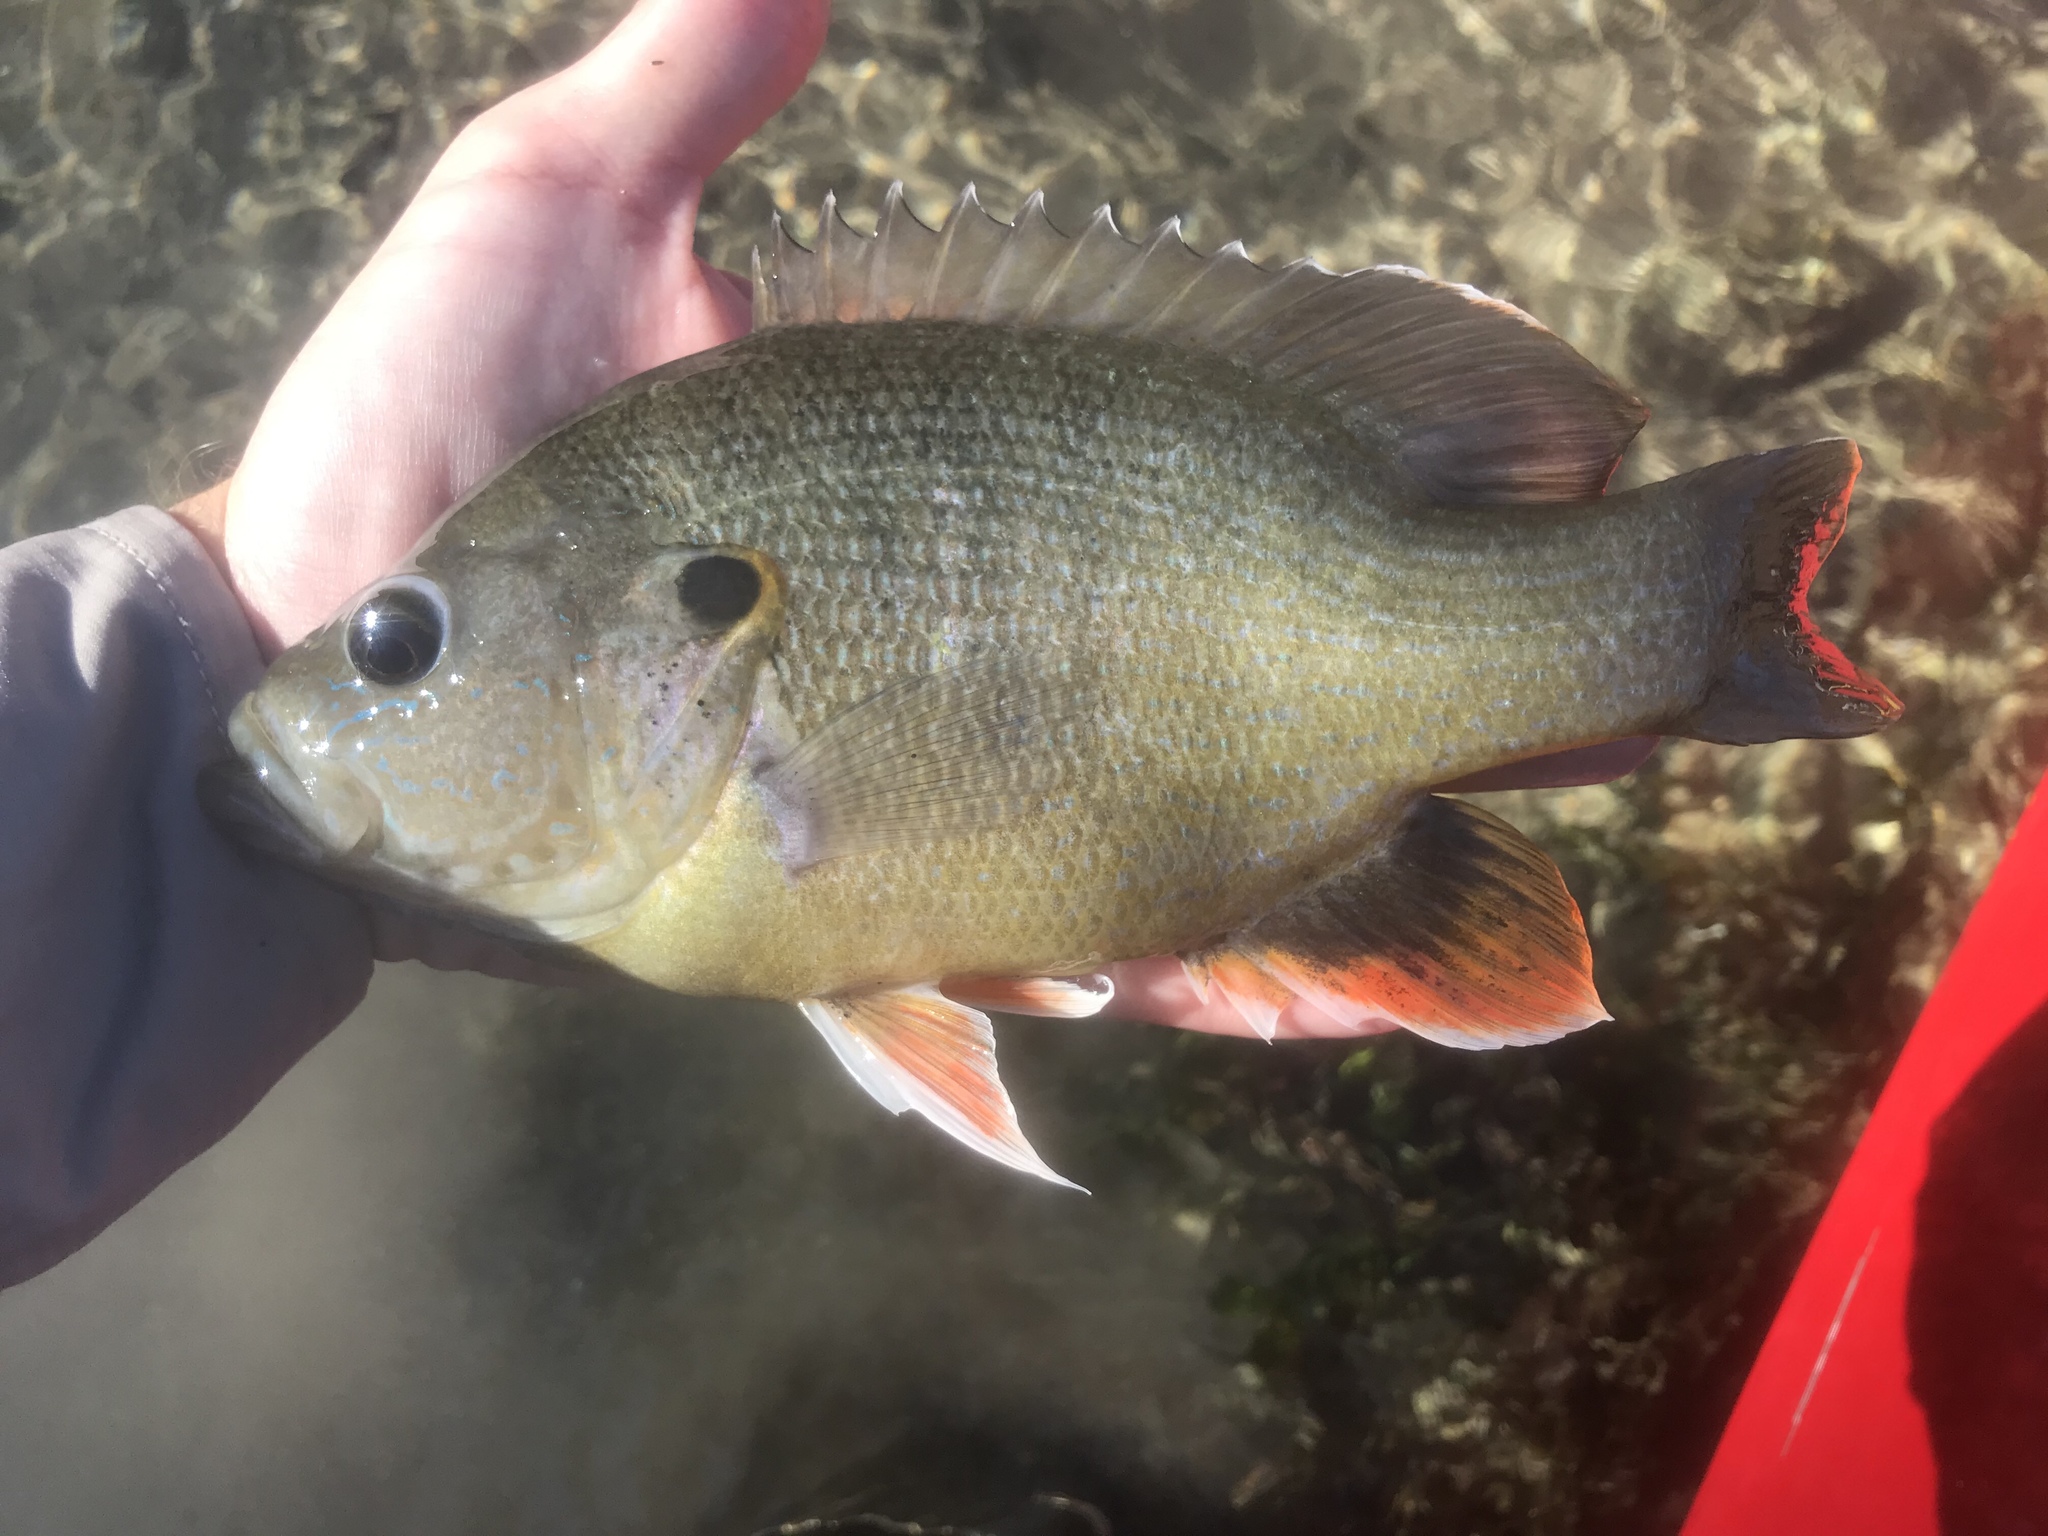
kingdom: Animalia
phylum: Chordata
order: Perciformes
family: Centrarchidae
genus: Lepomis
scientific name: Lepomis cyanellus
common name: Green sunfish
